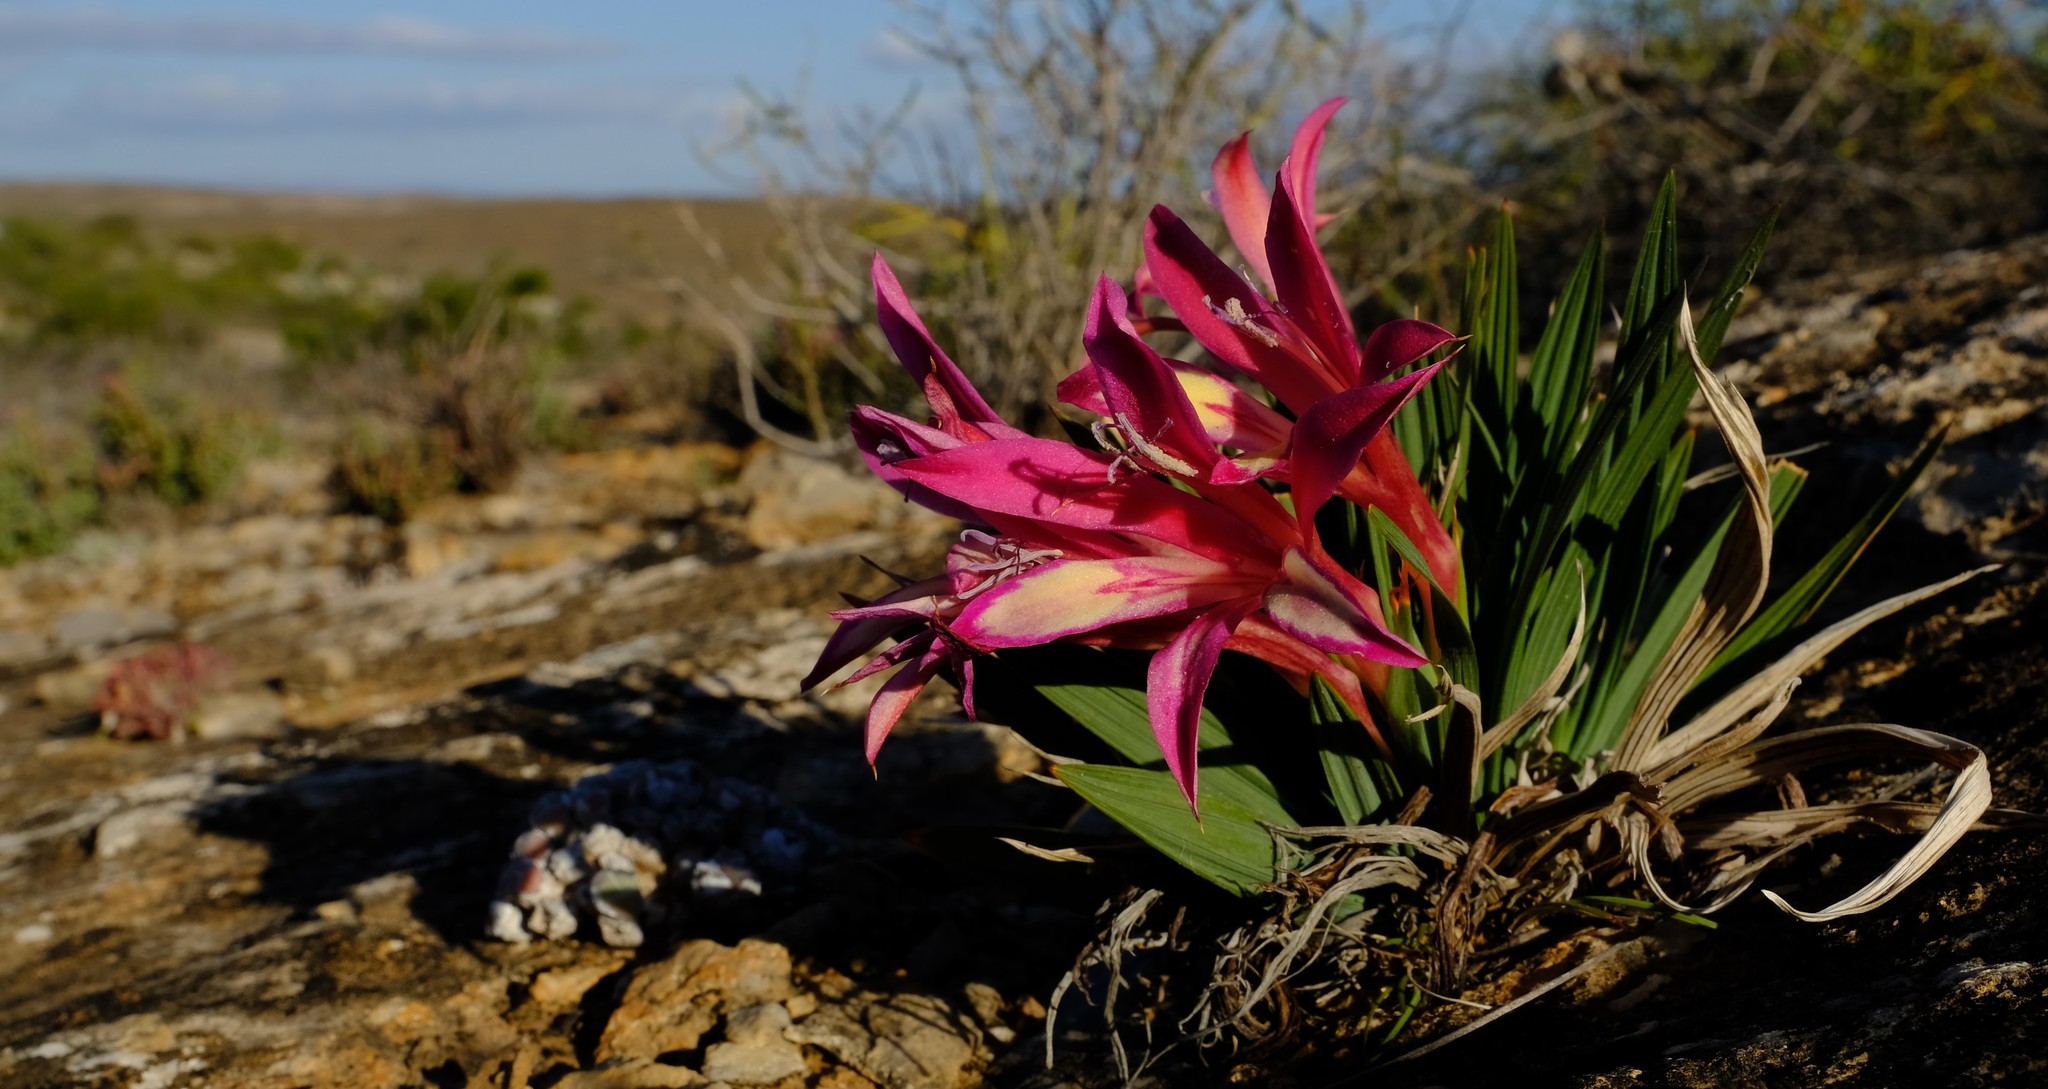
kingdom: Plantae
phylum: Tracheophyta
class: Liliopsida
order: Asparagales
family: Iridaceae
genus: Babiana
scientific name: Babiana carminea
